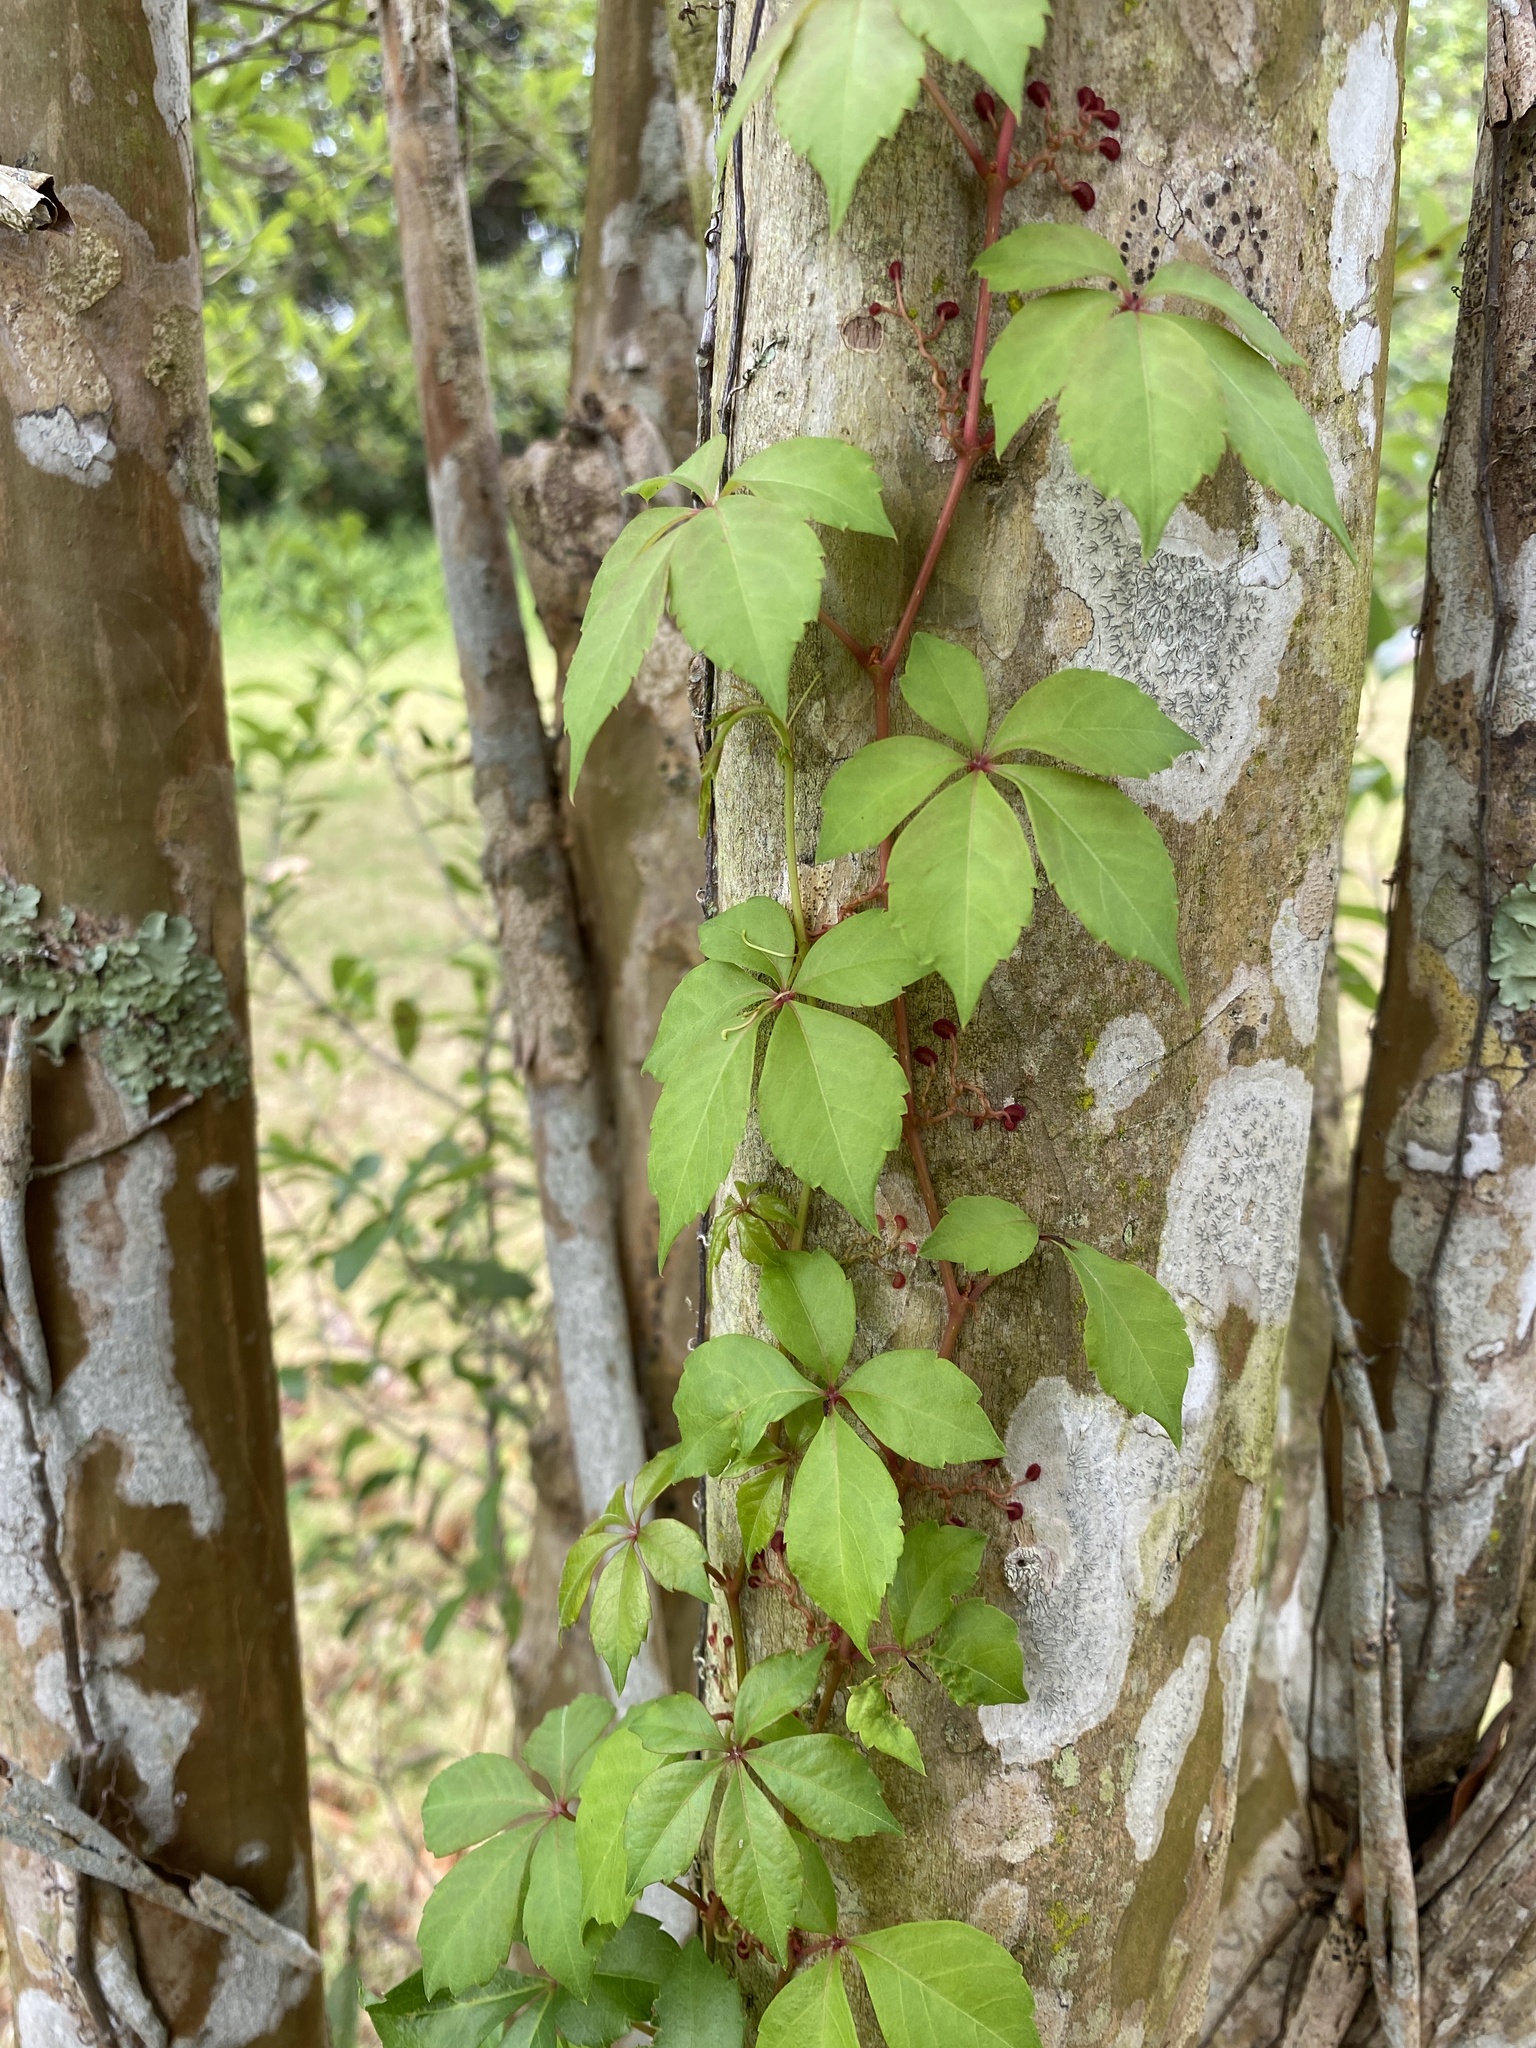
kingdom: Plantae
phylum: Tracheophyta
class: Magnoliopsida
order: Vitales
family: Vitaceae
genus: Parthenocissus
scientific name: Parthenocissus quinquefolia
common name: Virginia-creeper
